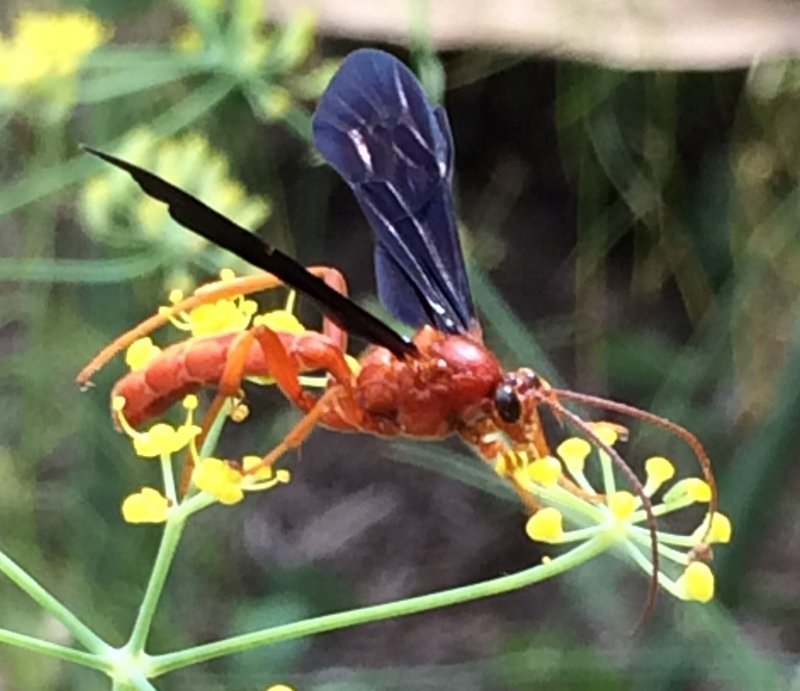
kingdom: Animalia
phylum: Arthropoda
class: Insecta
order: Hymenoptera
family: Ichneumonidae
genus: Trogus
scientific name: Trogus vulpinus
